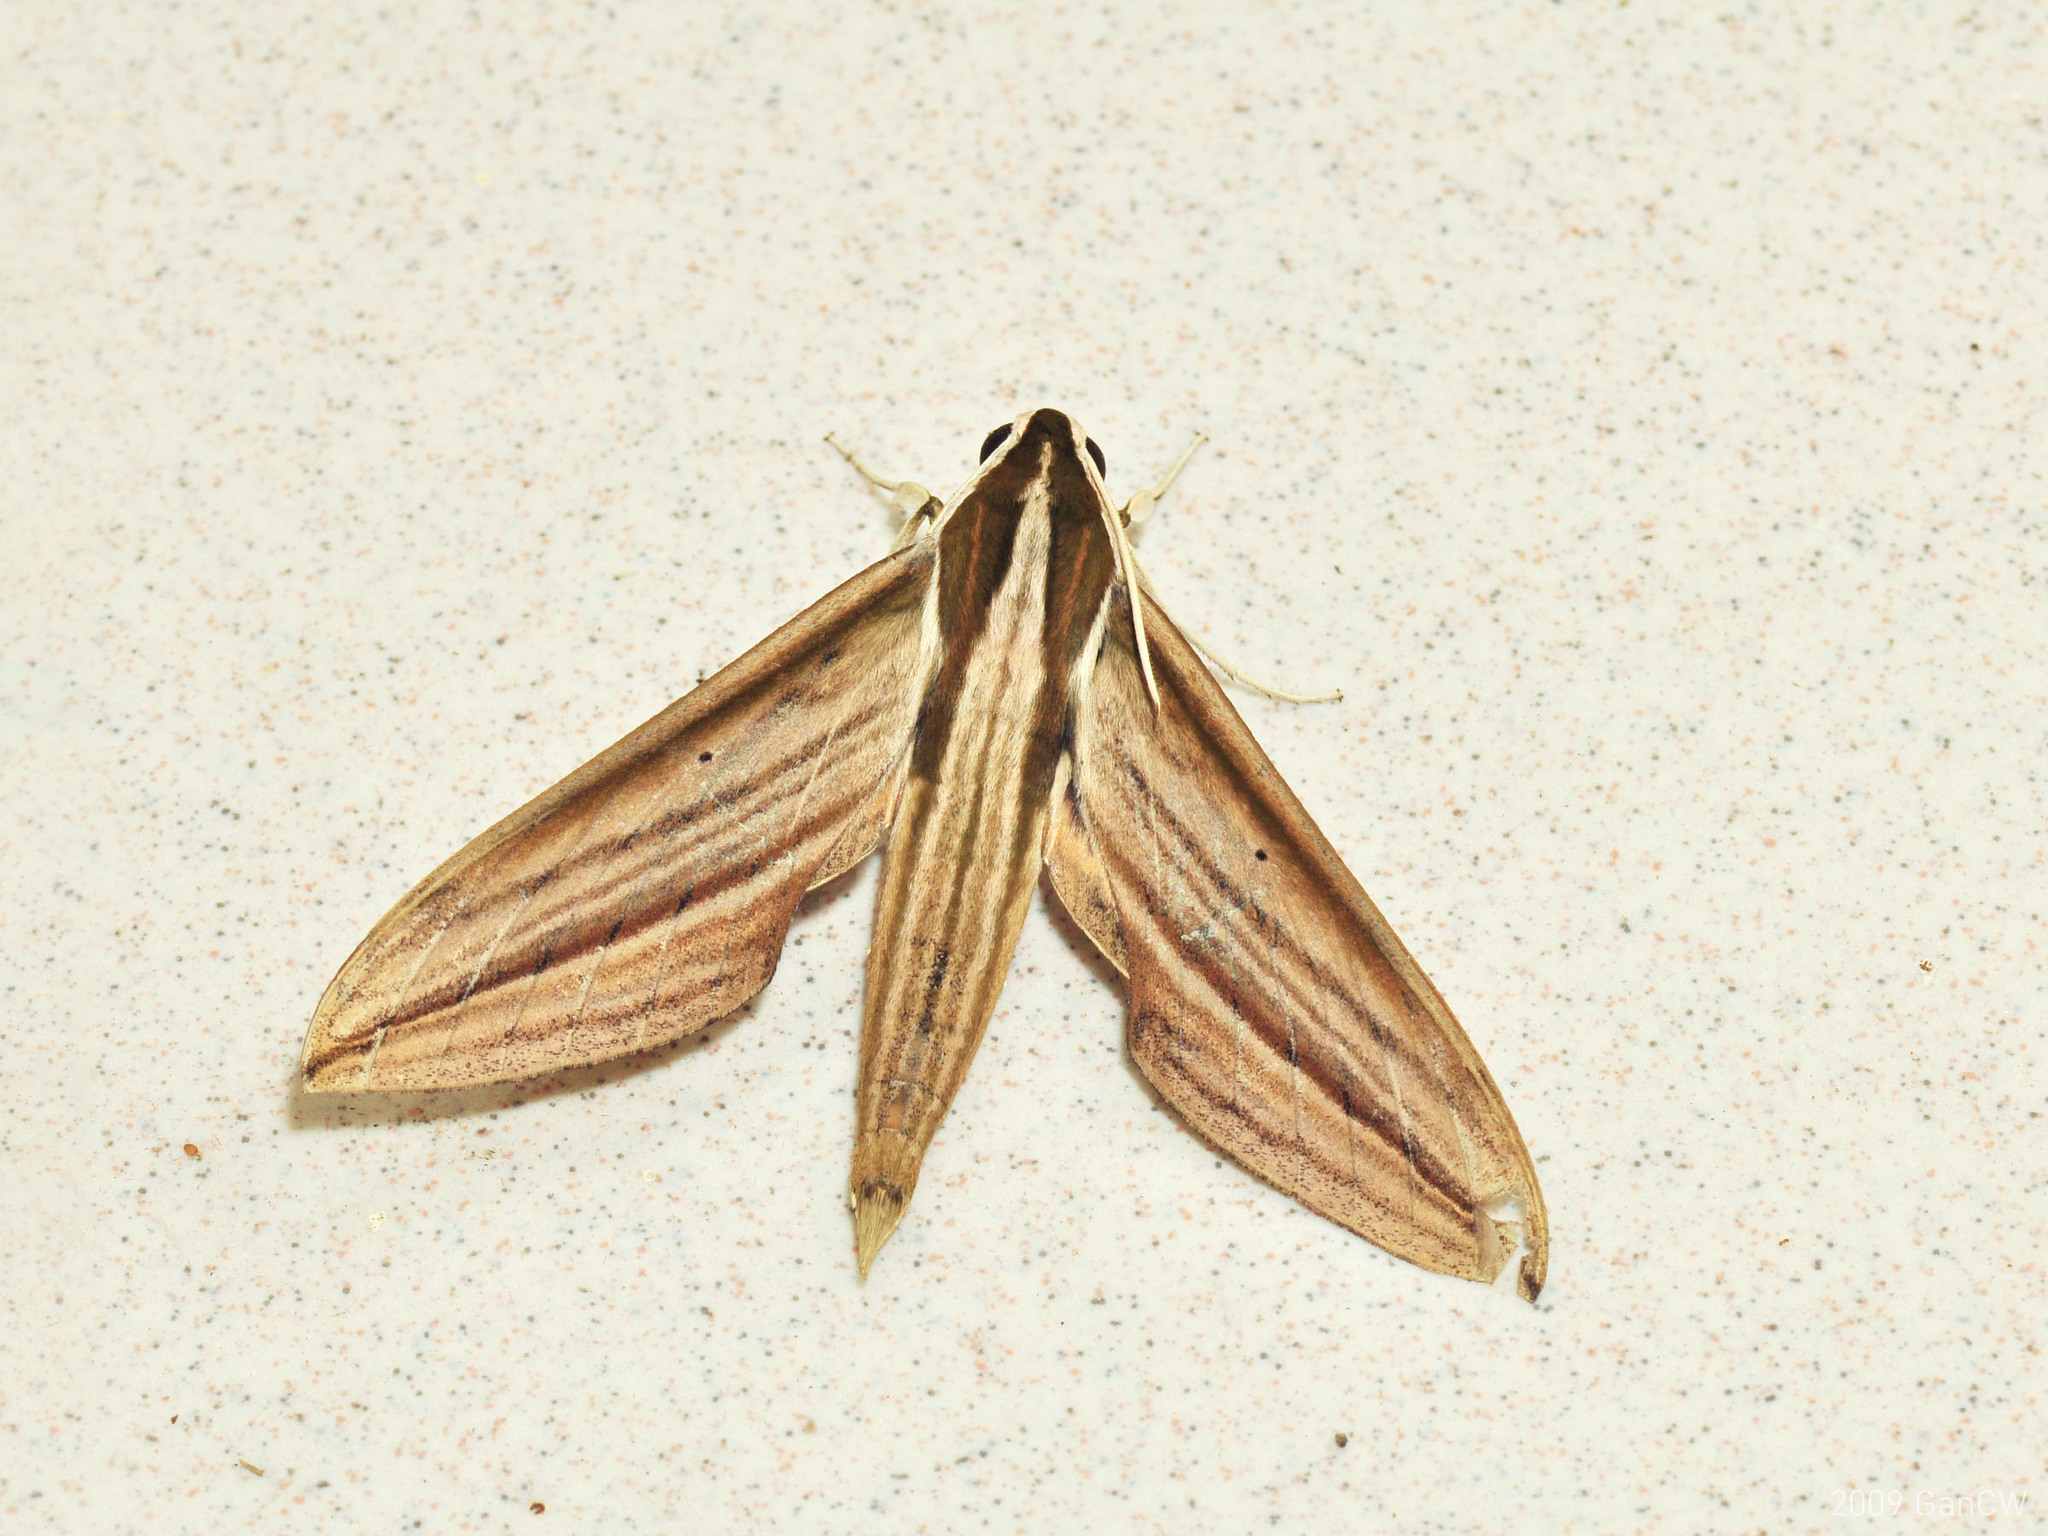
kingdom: Animalia
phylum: Arthropoda
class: Insecta
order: Lepidoptera
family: Sphingidae
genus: Cechetra
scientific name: Cechetra lineosa
